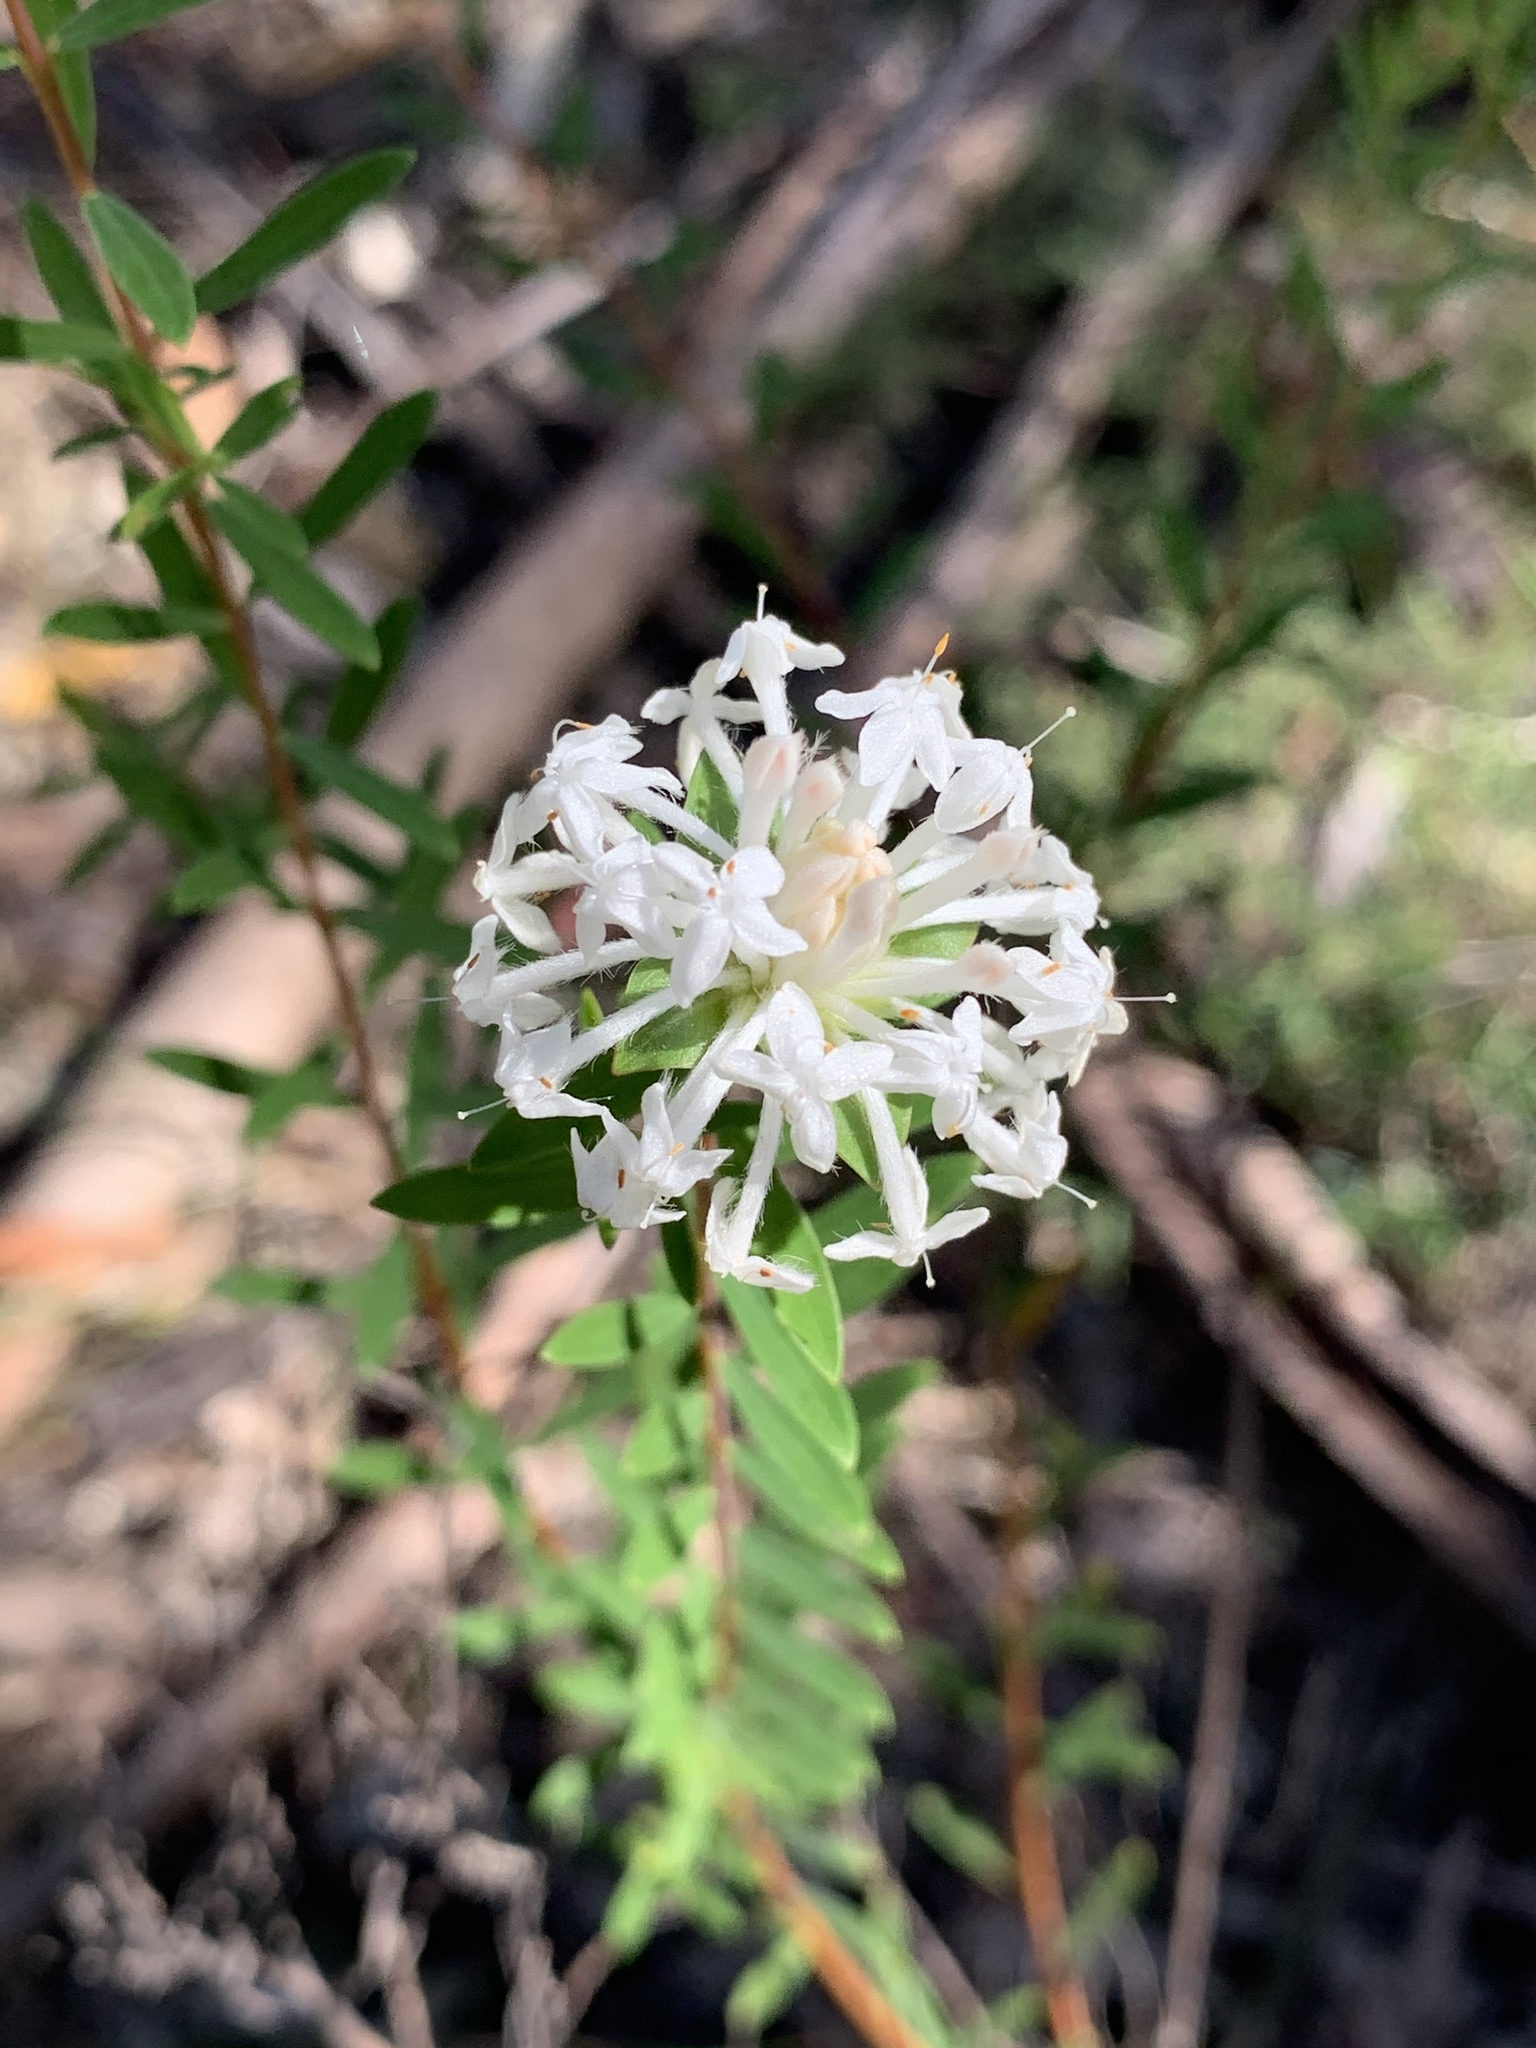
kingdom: Plantae
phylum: Tracheophyta
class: Magnoliopsida
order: Malvales
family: Thymelaeaceae
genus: Pimelea
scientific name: Pimelea linifolia
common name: Queen-of-the-bush
